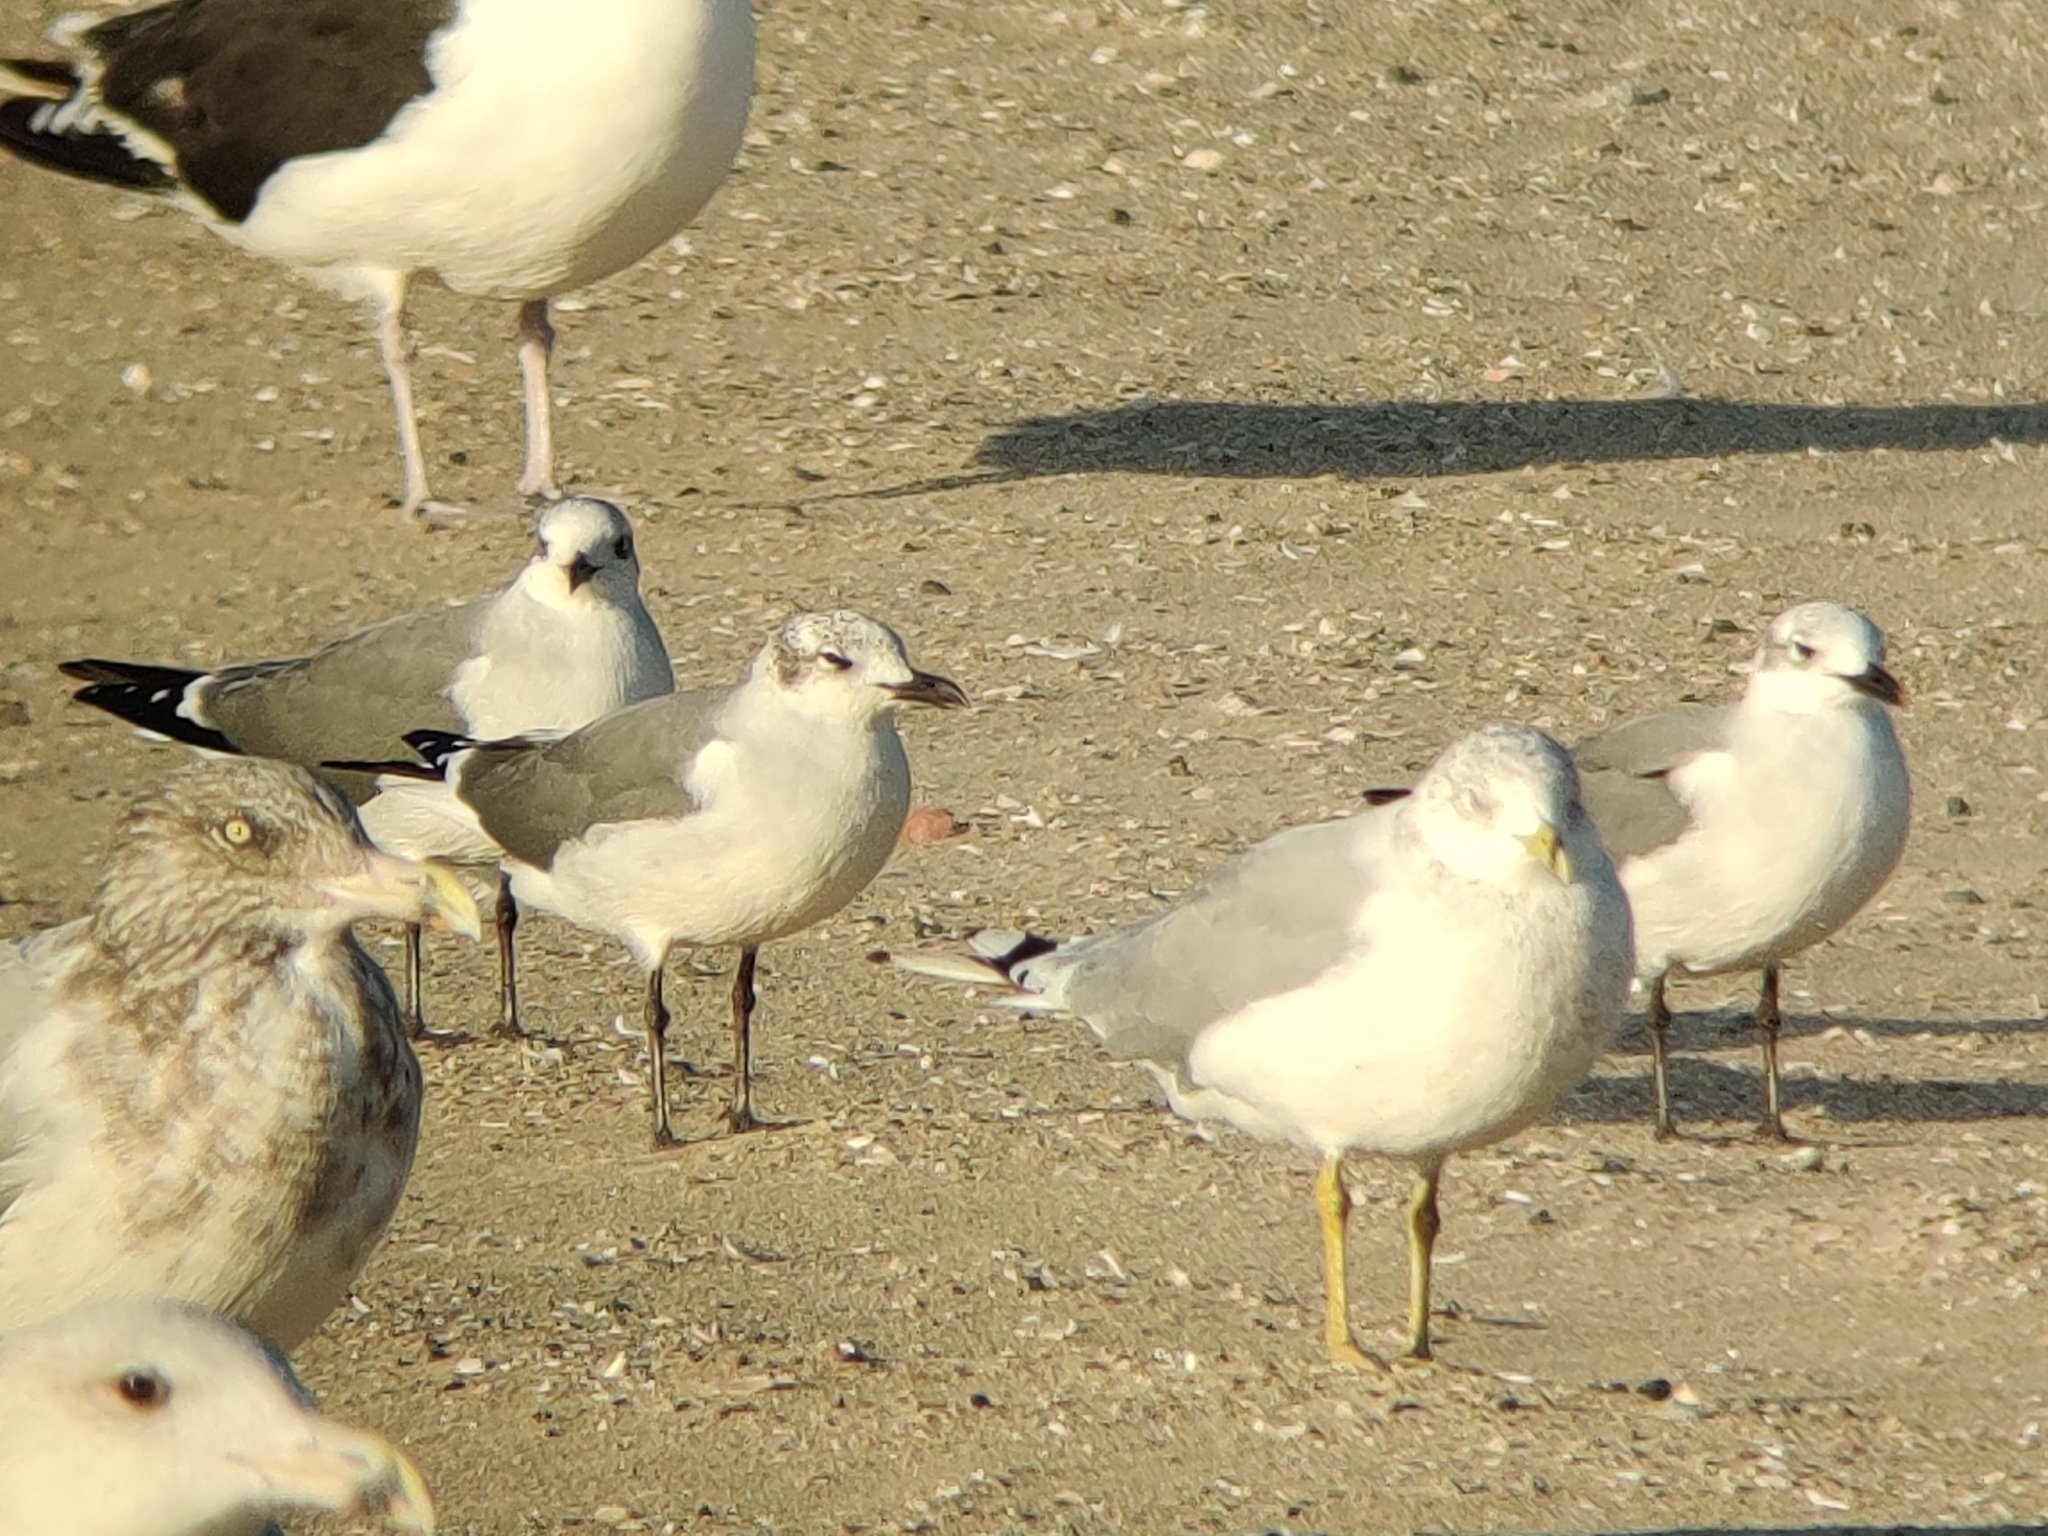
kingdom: Animalia
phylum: Chordata
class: Aves
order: Charadriiformes
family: Laridae
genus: Leucophaeus
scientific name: Leucophaeus atricilla
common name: Laughing gull
